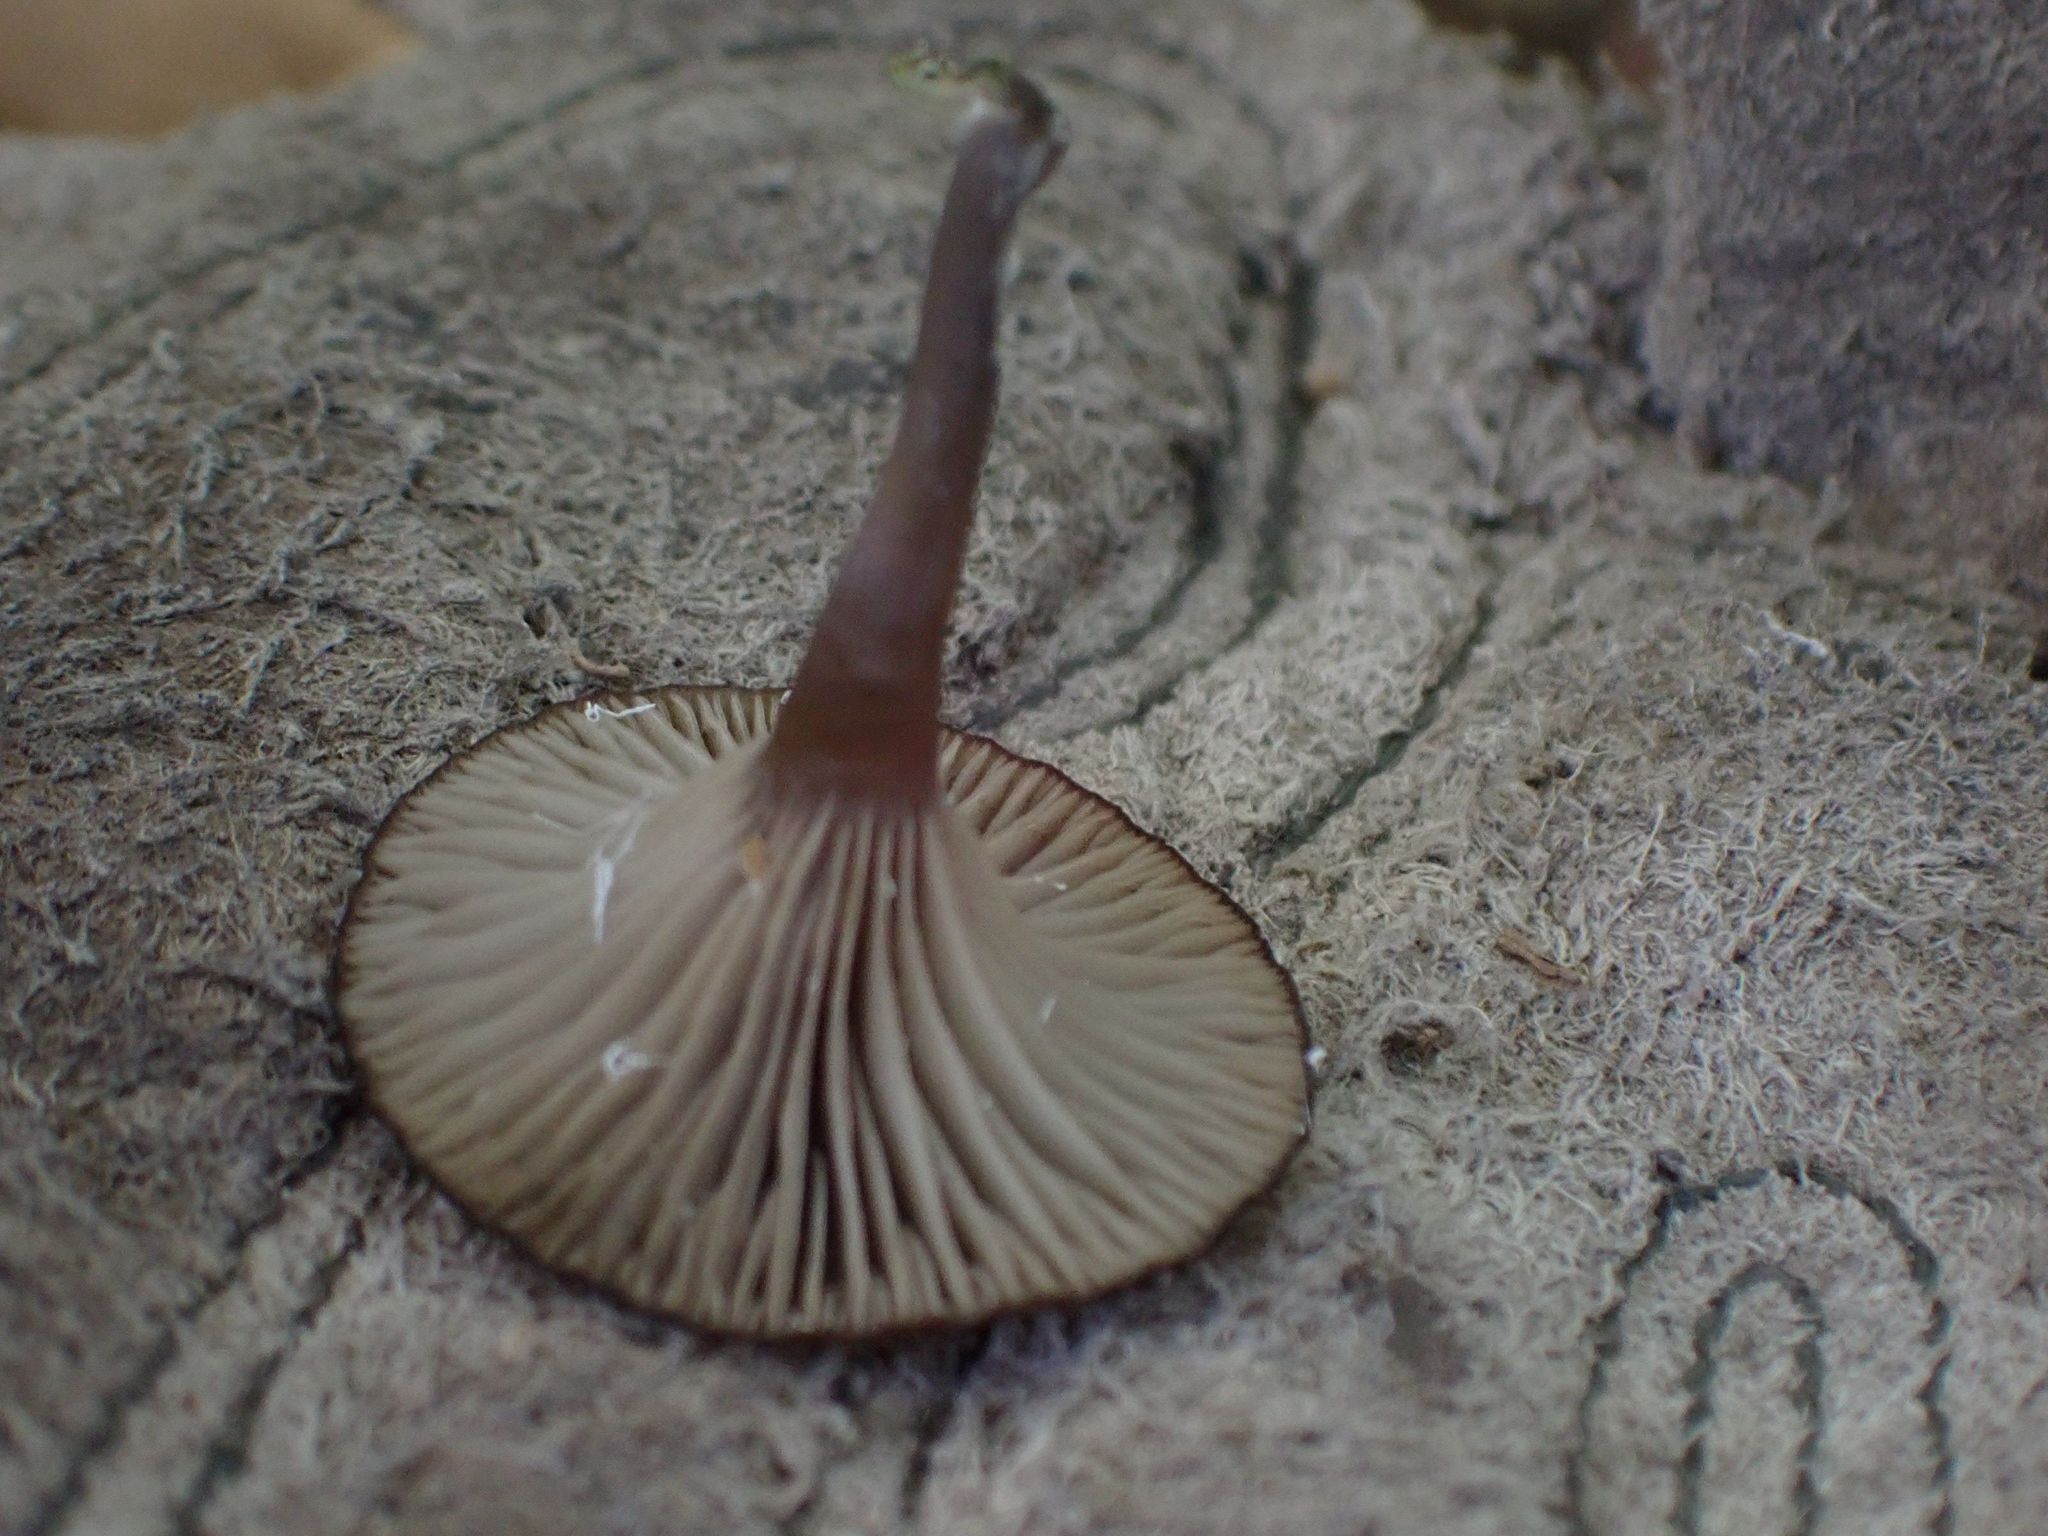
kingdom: Fungi
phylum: Basidiomycota
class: Agaricomycetes
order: Agaricales
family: Hygrophoraceae
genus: Arrhenia
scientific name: Arrhenia epichysium
